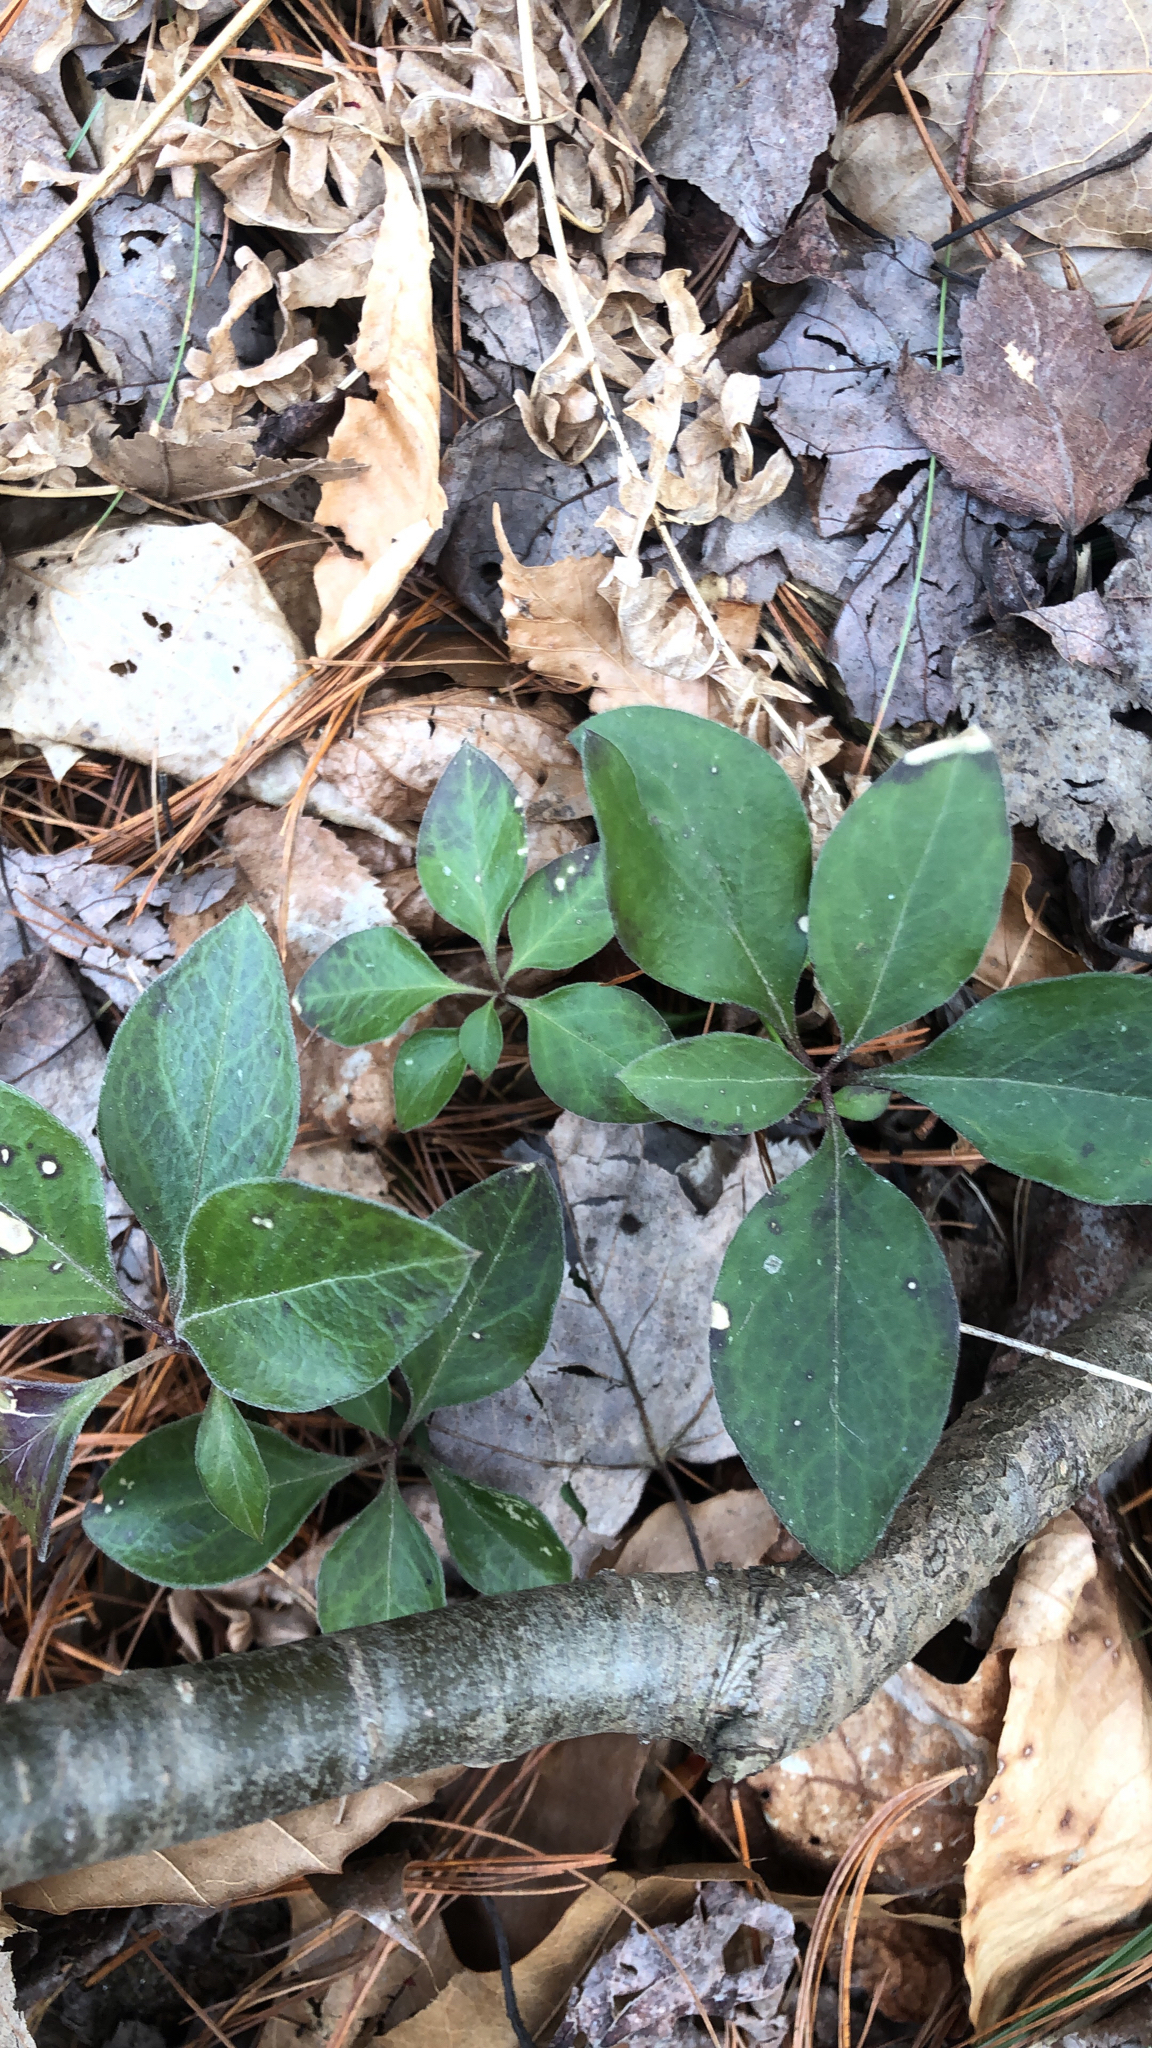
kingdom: Plantae
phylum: Tracheophyta
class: Magnoliopsida
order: Fabales
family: Polygalaceae
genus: Polygaloides
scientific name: Polygaloides paucifolia
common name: Bird-on-the-wing
